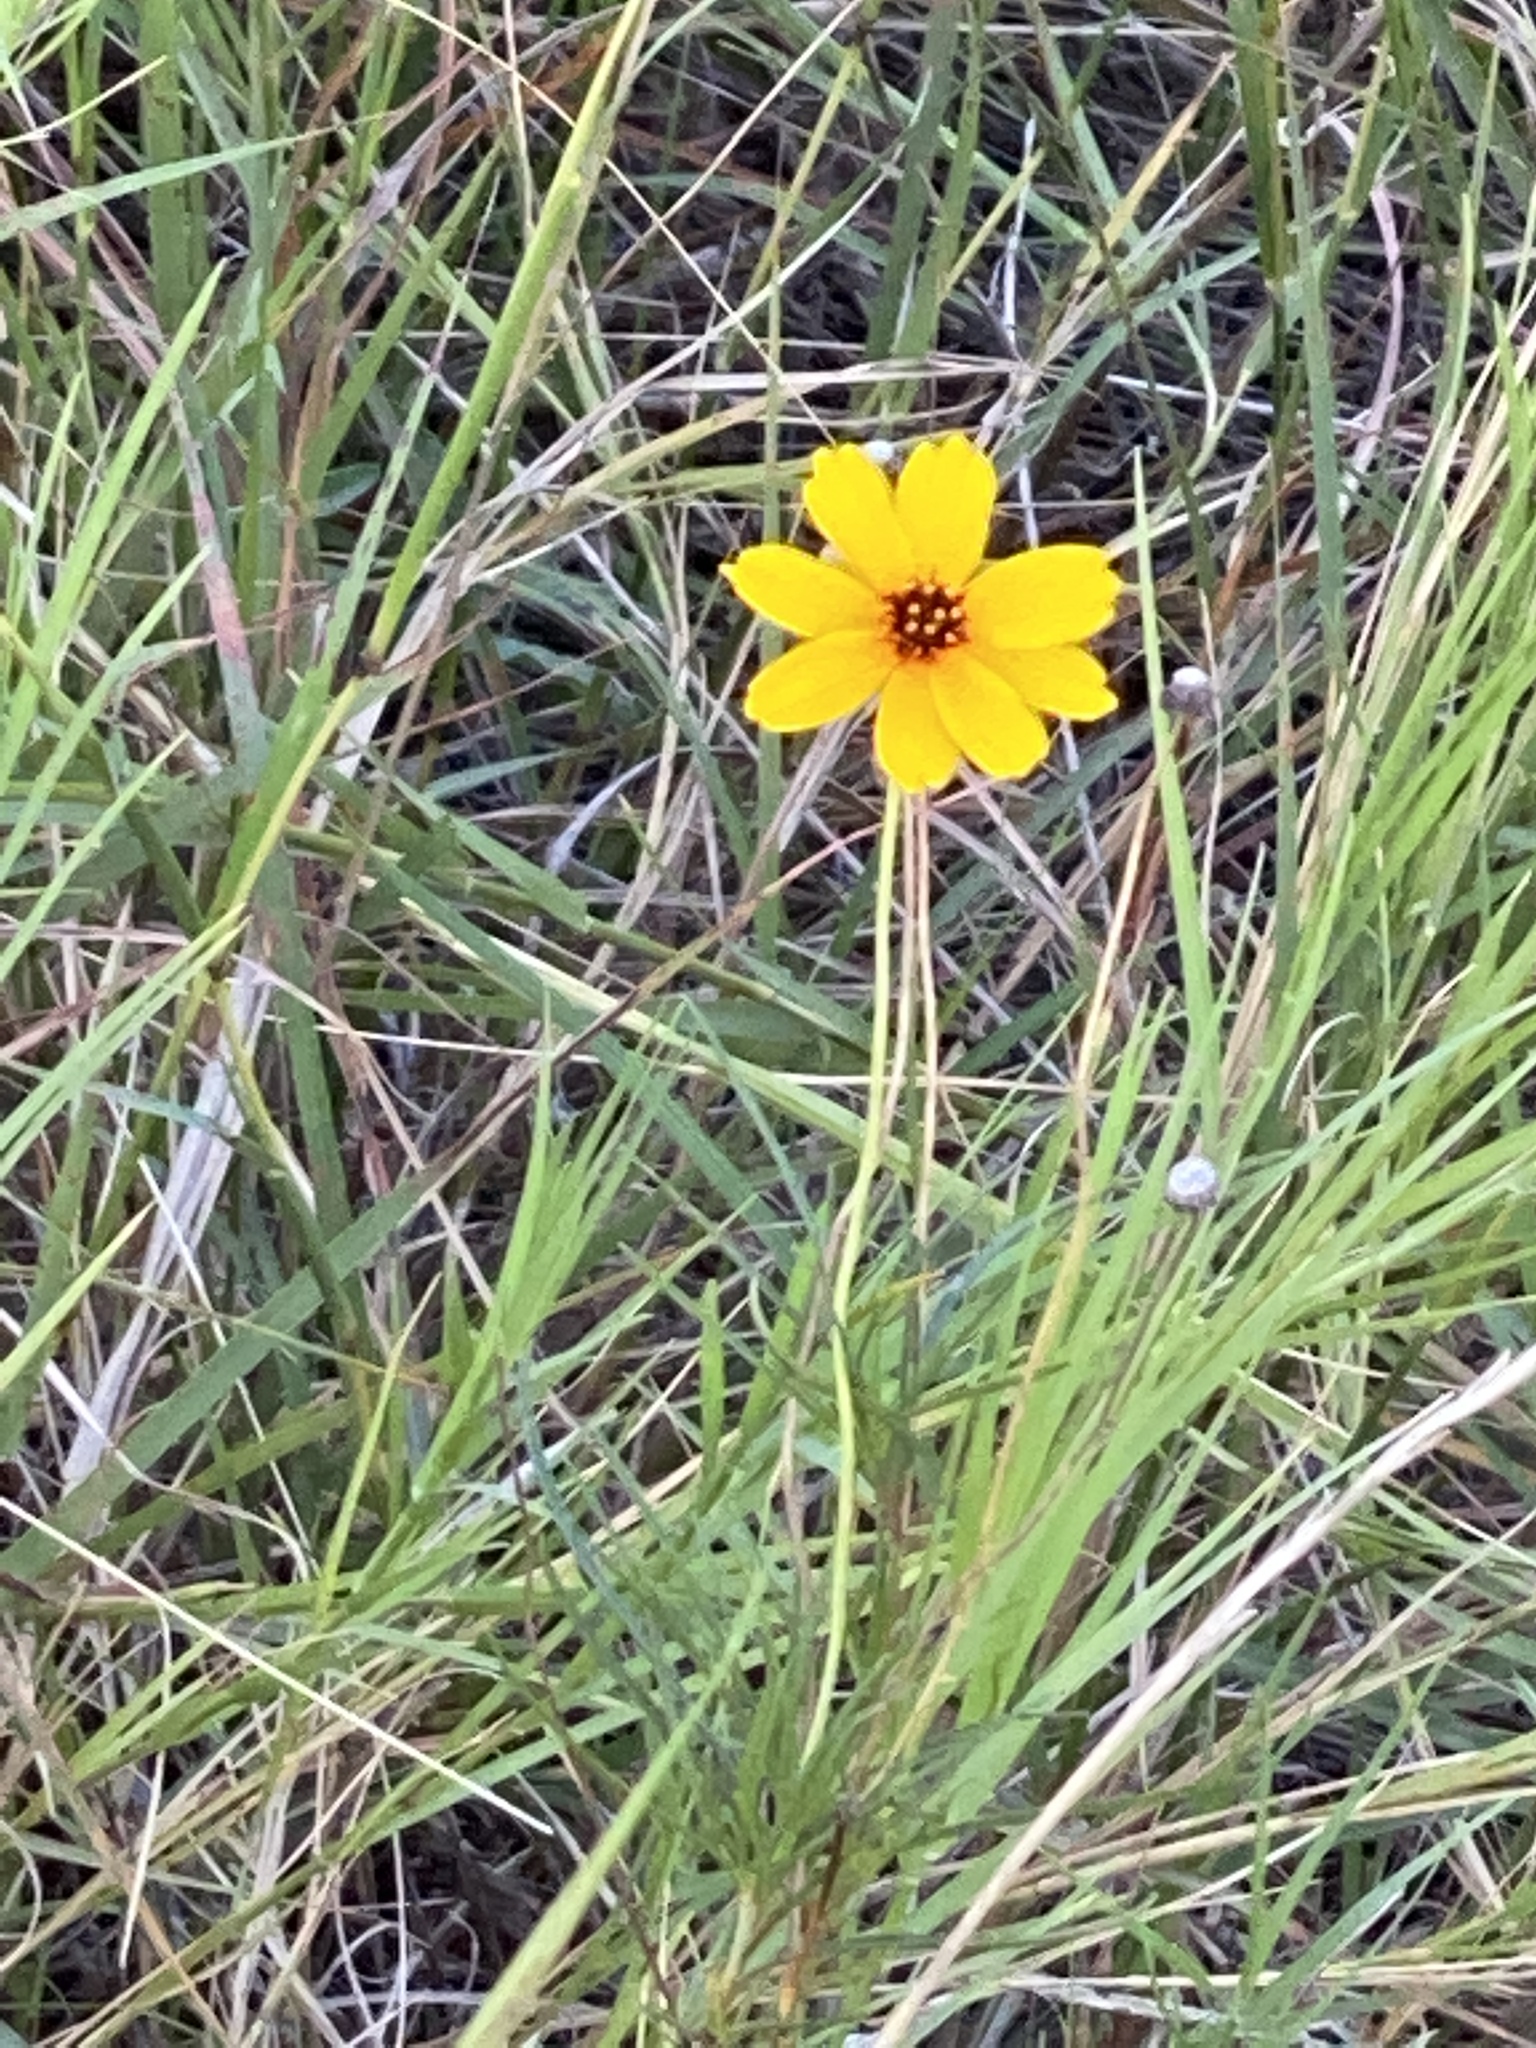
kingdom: Plantae
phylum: Tracheophyta
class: Magnoliopsida
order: Asterales
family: Asteraceae
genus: Thelesperma
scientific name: Thelesperma filifolium
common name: Stiff greenthread
